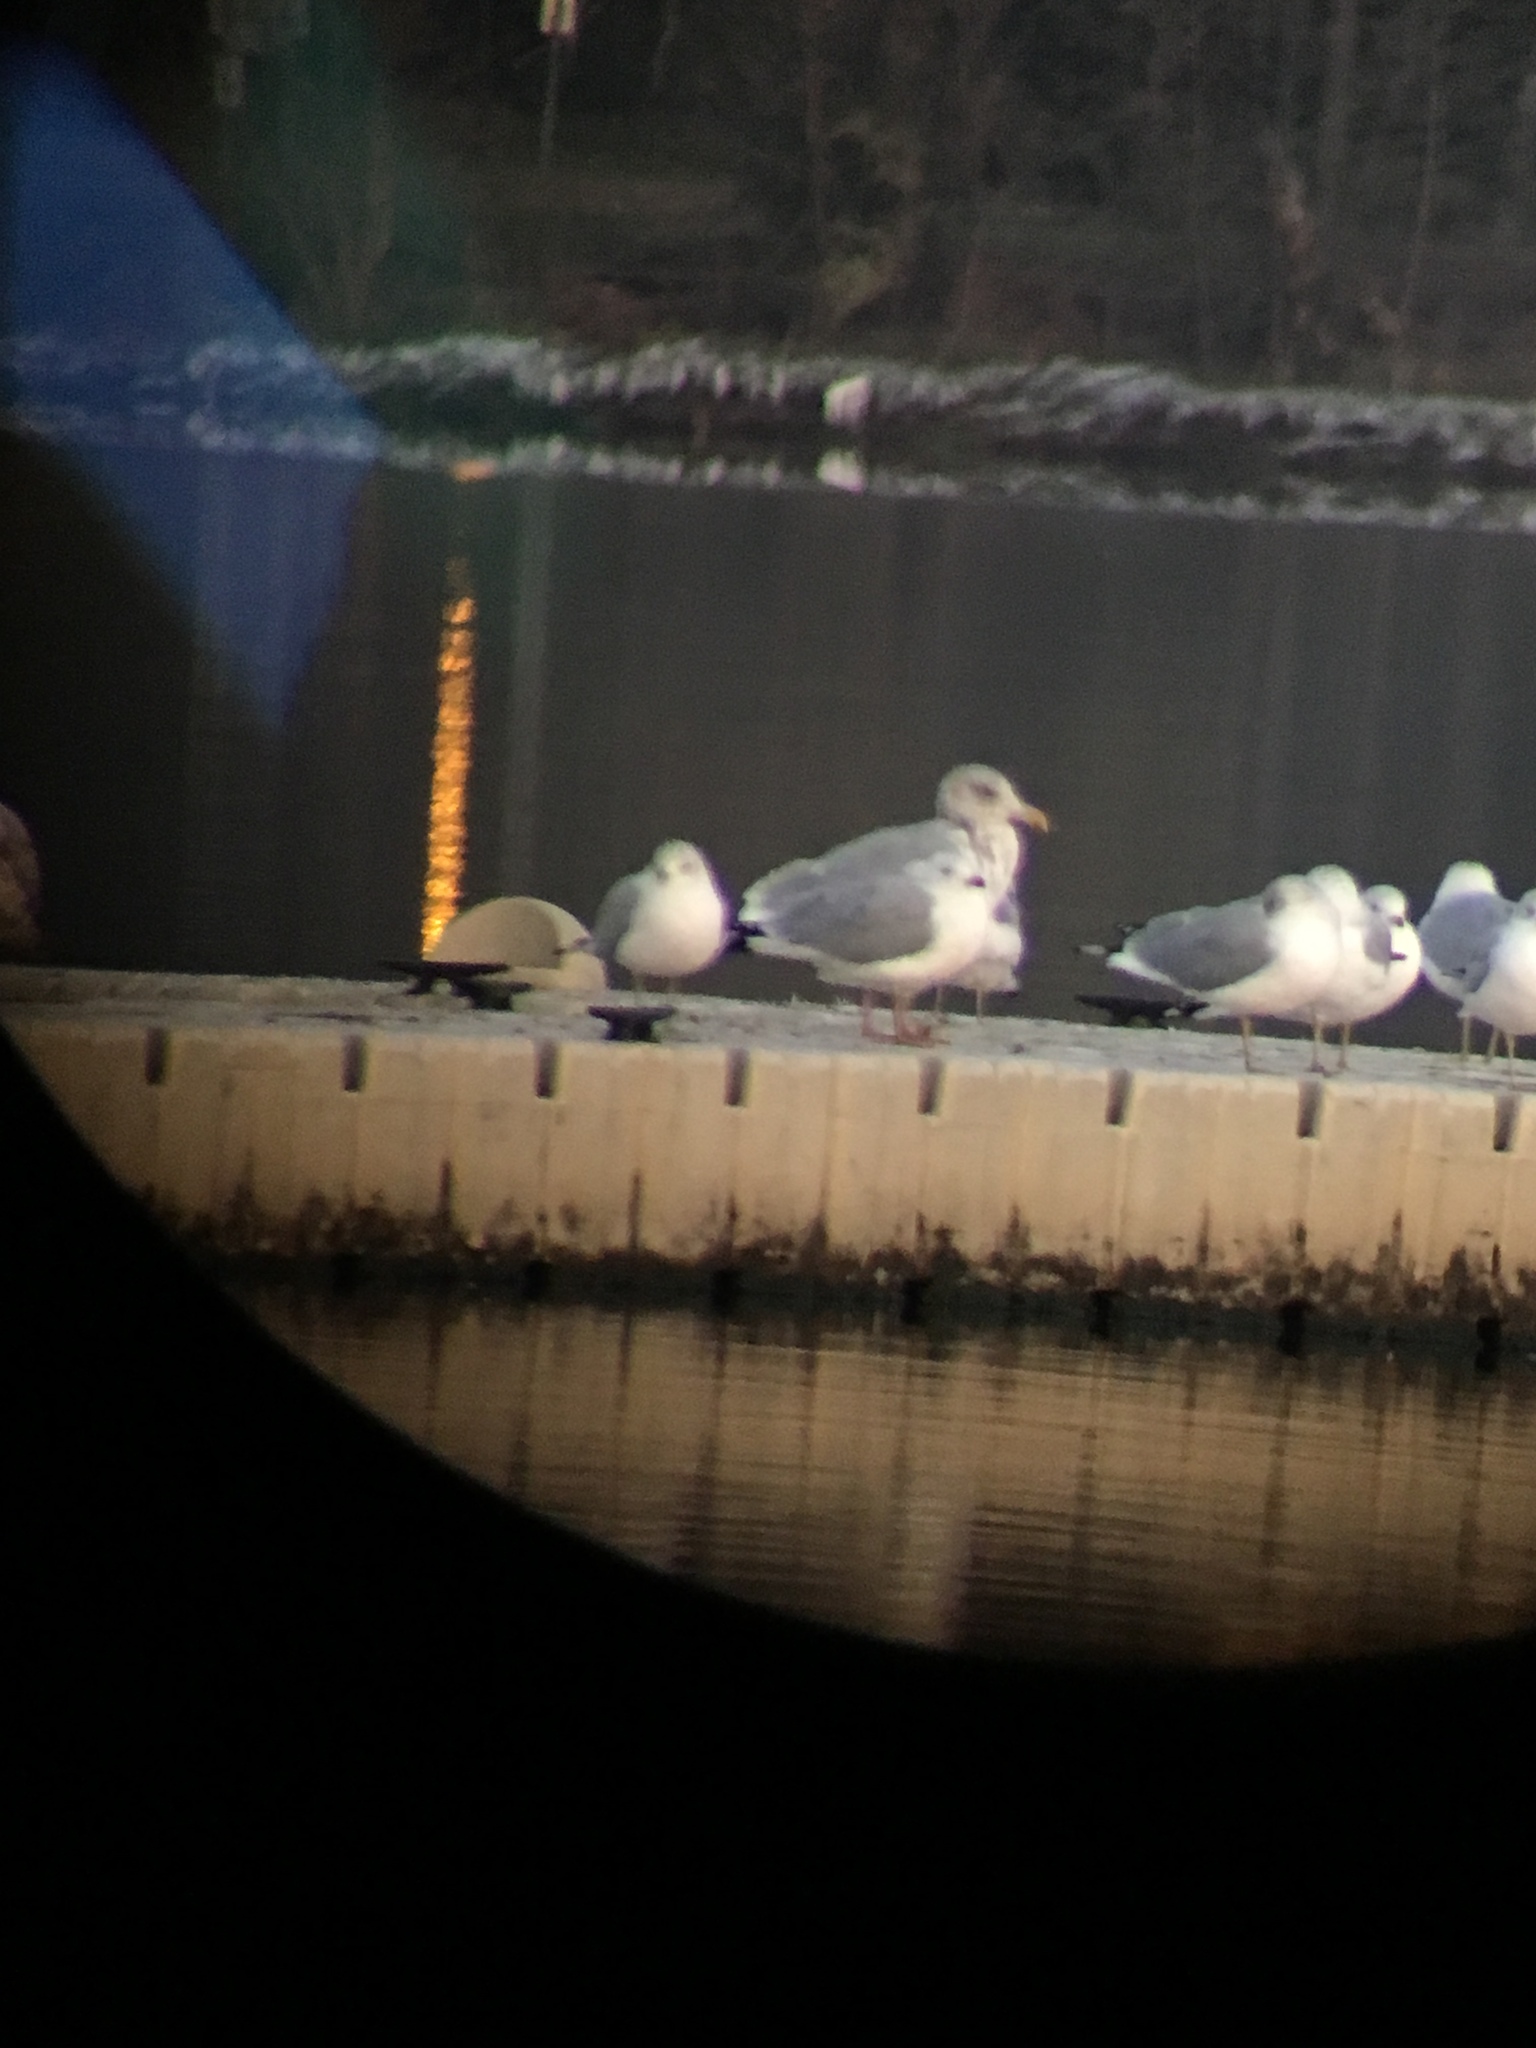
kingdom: Animalia
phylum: Chordata
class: Aves
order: Charadriiformes
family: Laridae
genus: Larus
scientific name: Larus argentatus
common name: Herring gull
